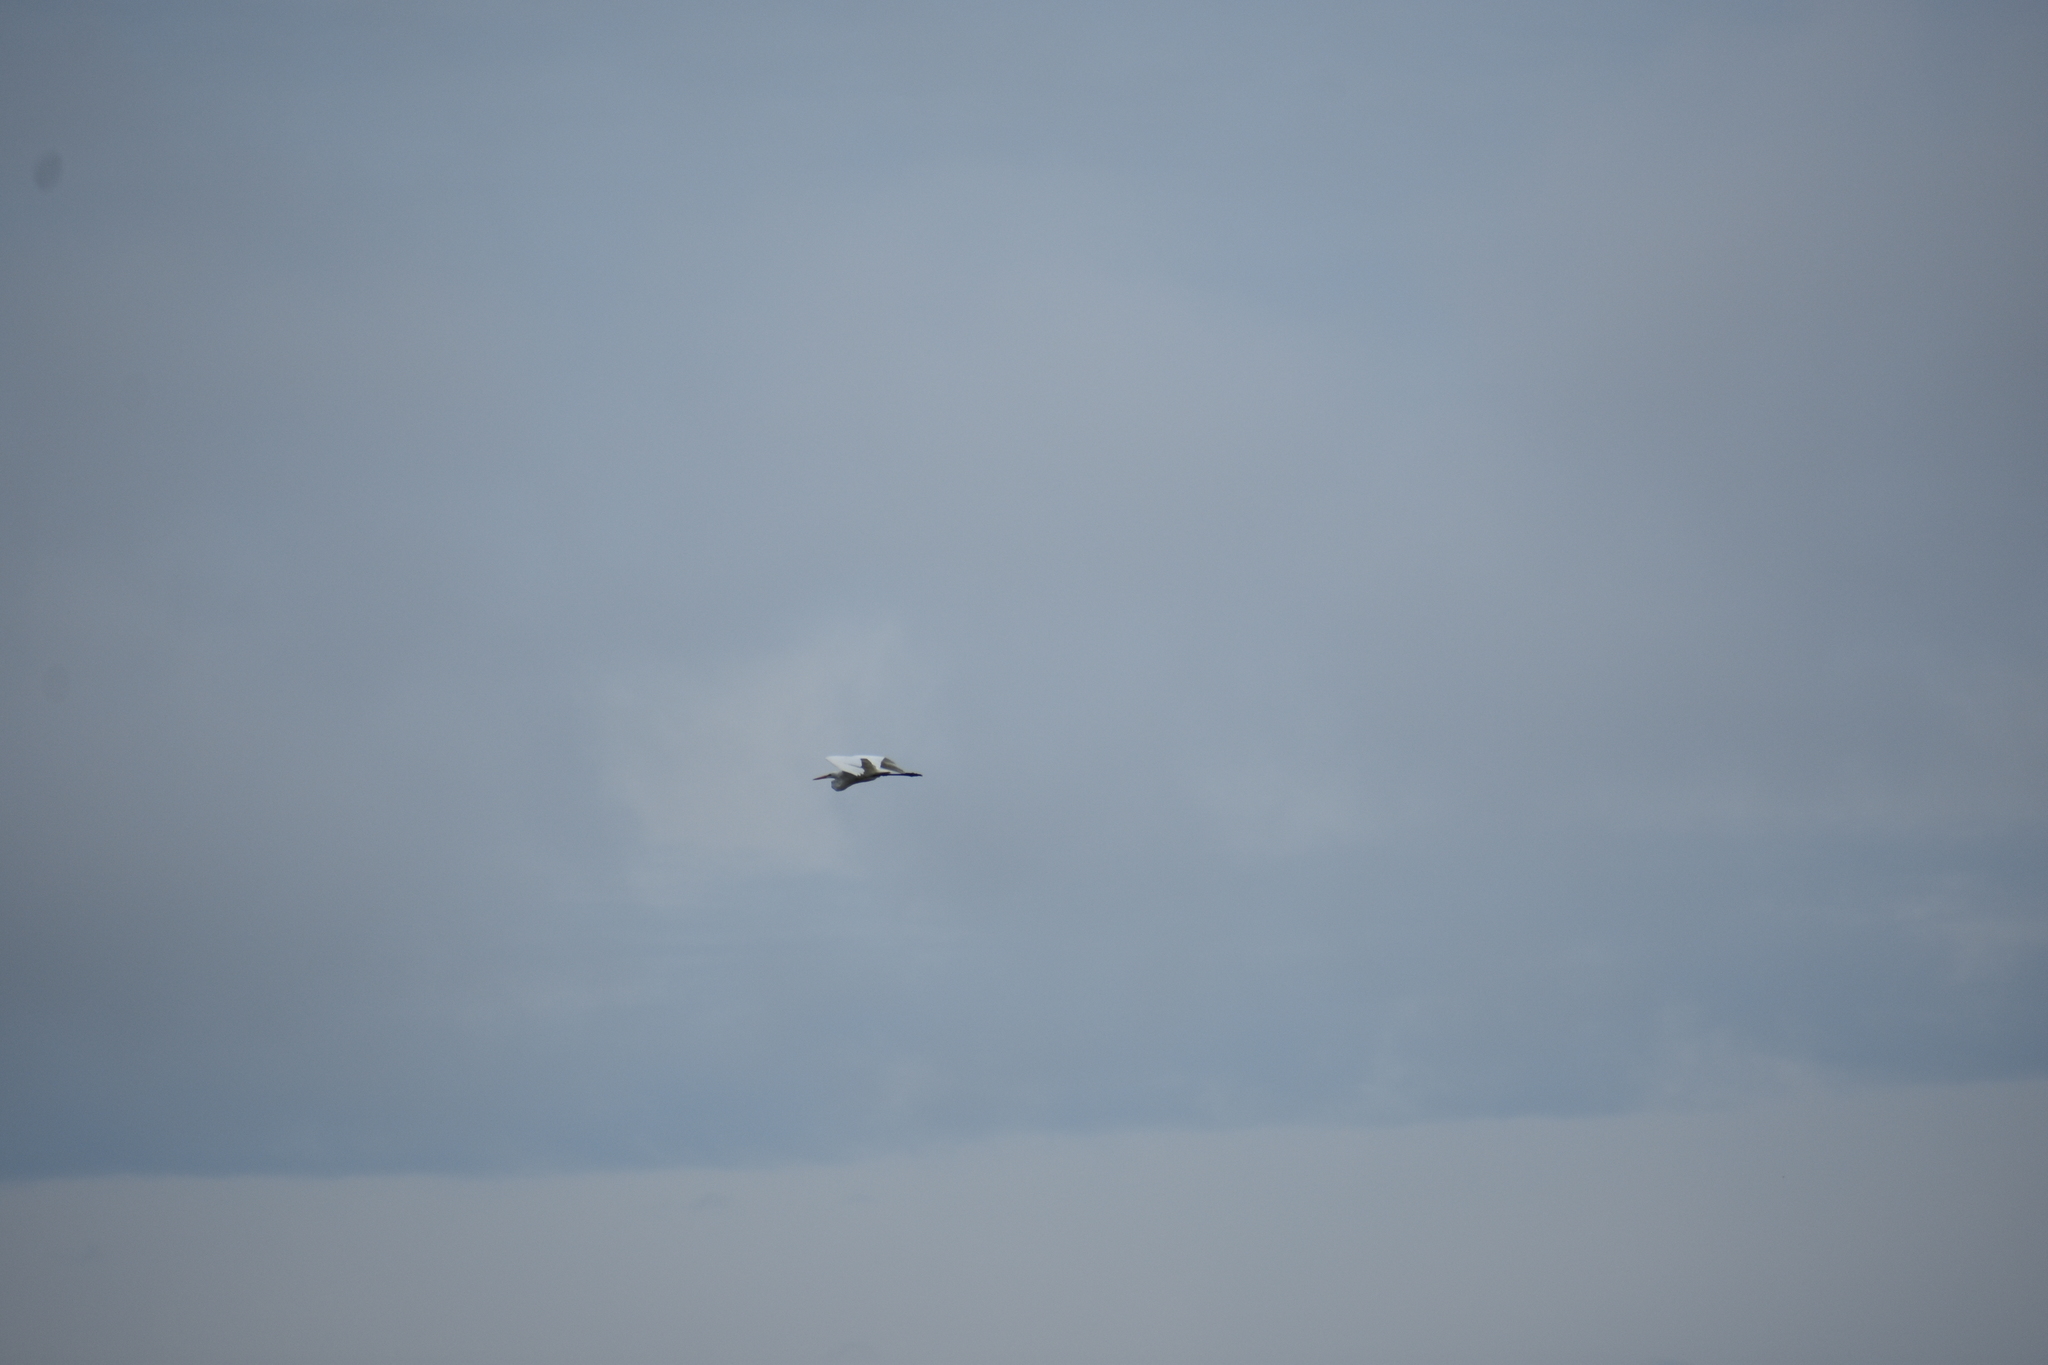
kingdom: Animalia
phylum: Chordata
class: Aves
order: Pelecaniformes
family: Ardeidae
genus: Ardea
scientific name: Ardea alba
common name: Great egret
